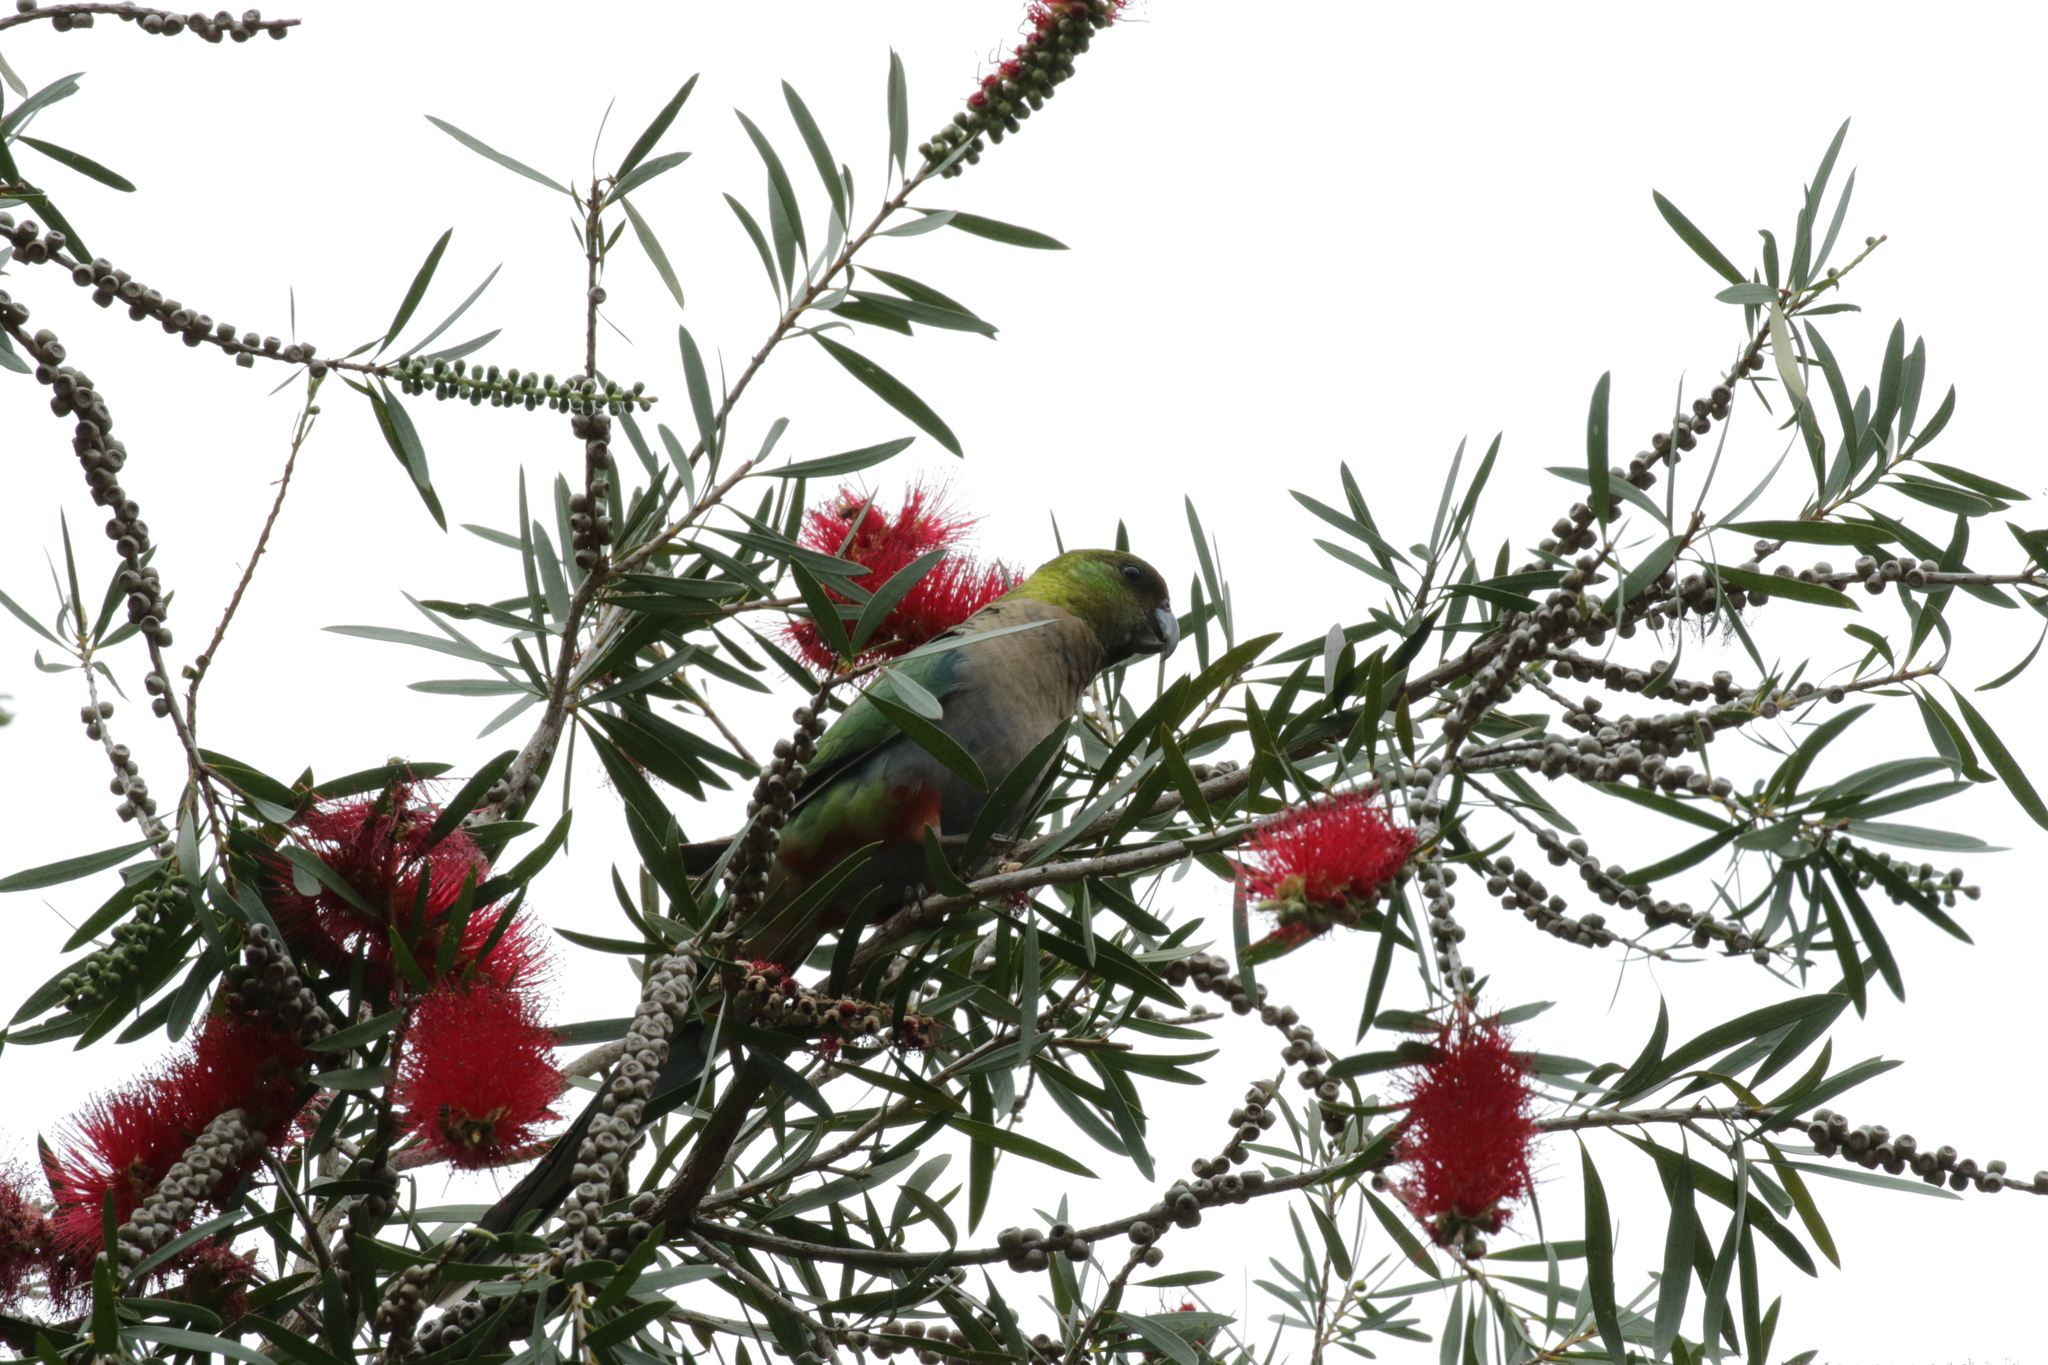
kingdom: Animalia
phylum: Chordata
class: Aves
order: Psittaciformes
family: Psittacidae
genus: Purpureicephalus
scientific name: Purpureicephalus spurius
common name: Red-capped parrot
